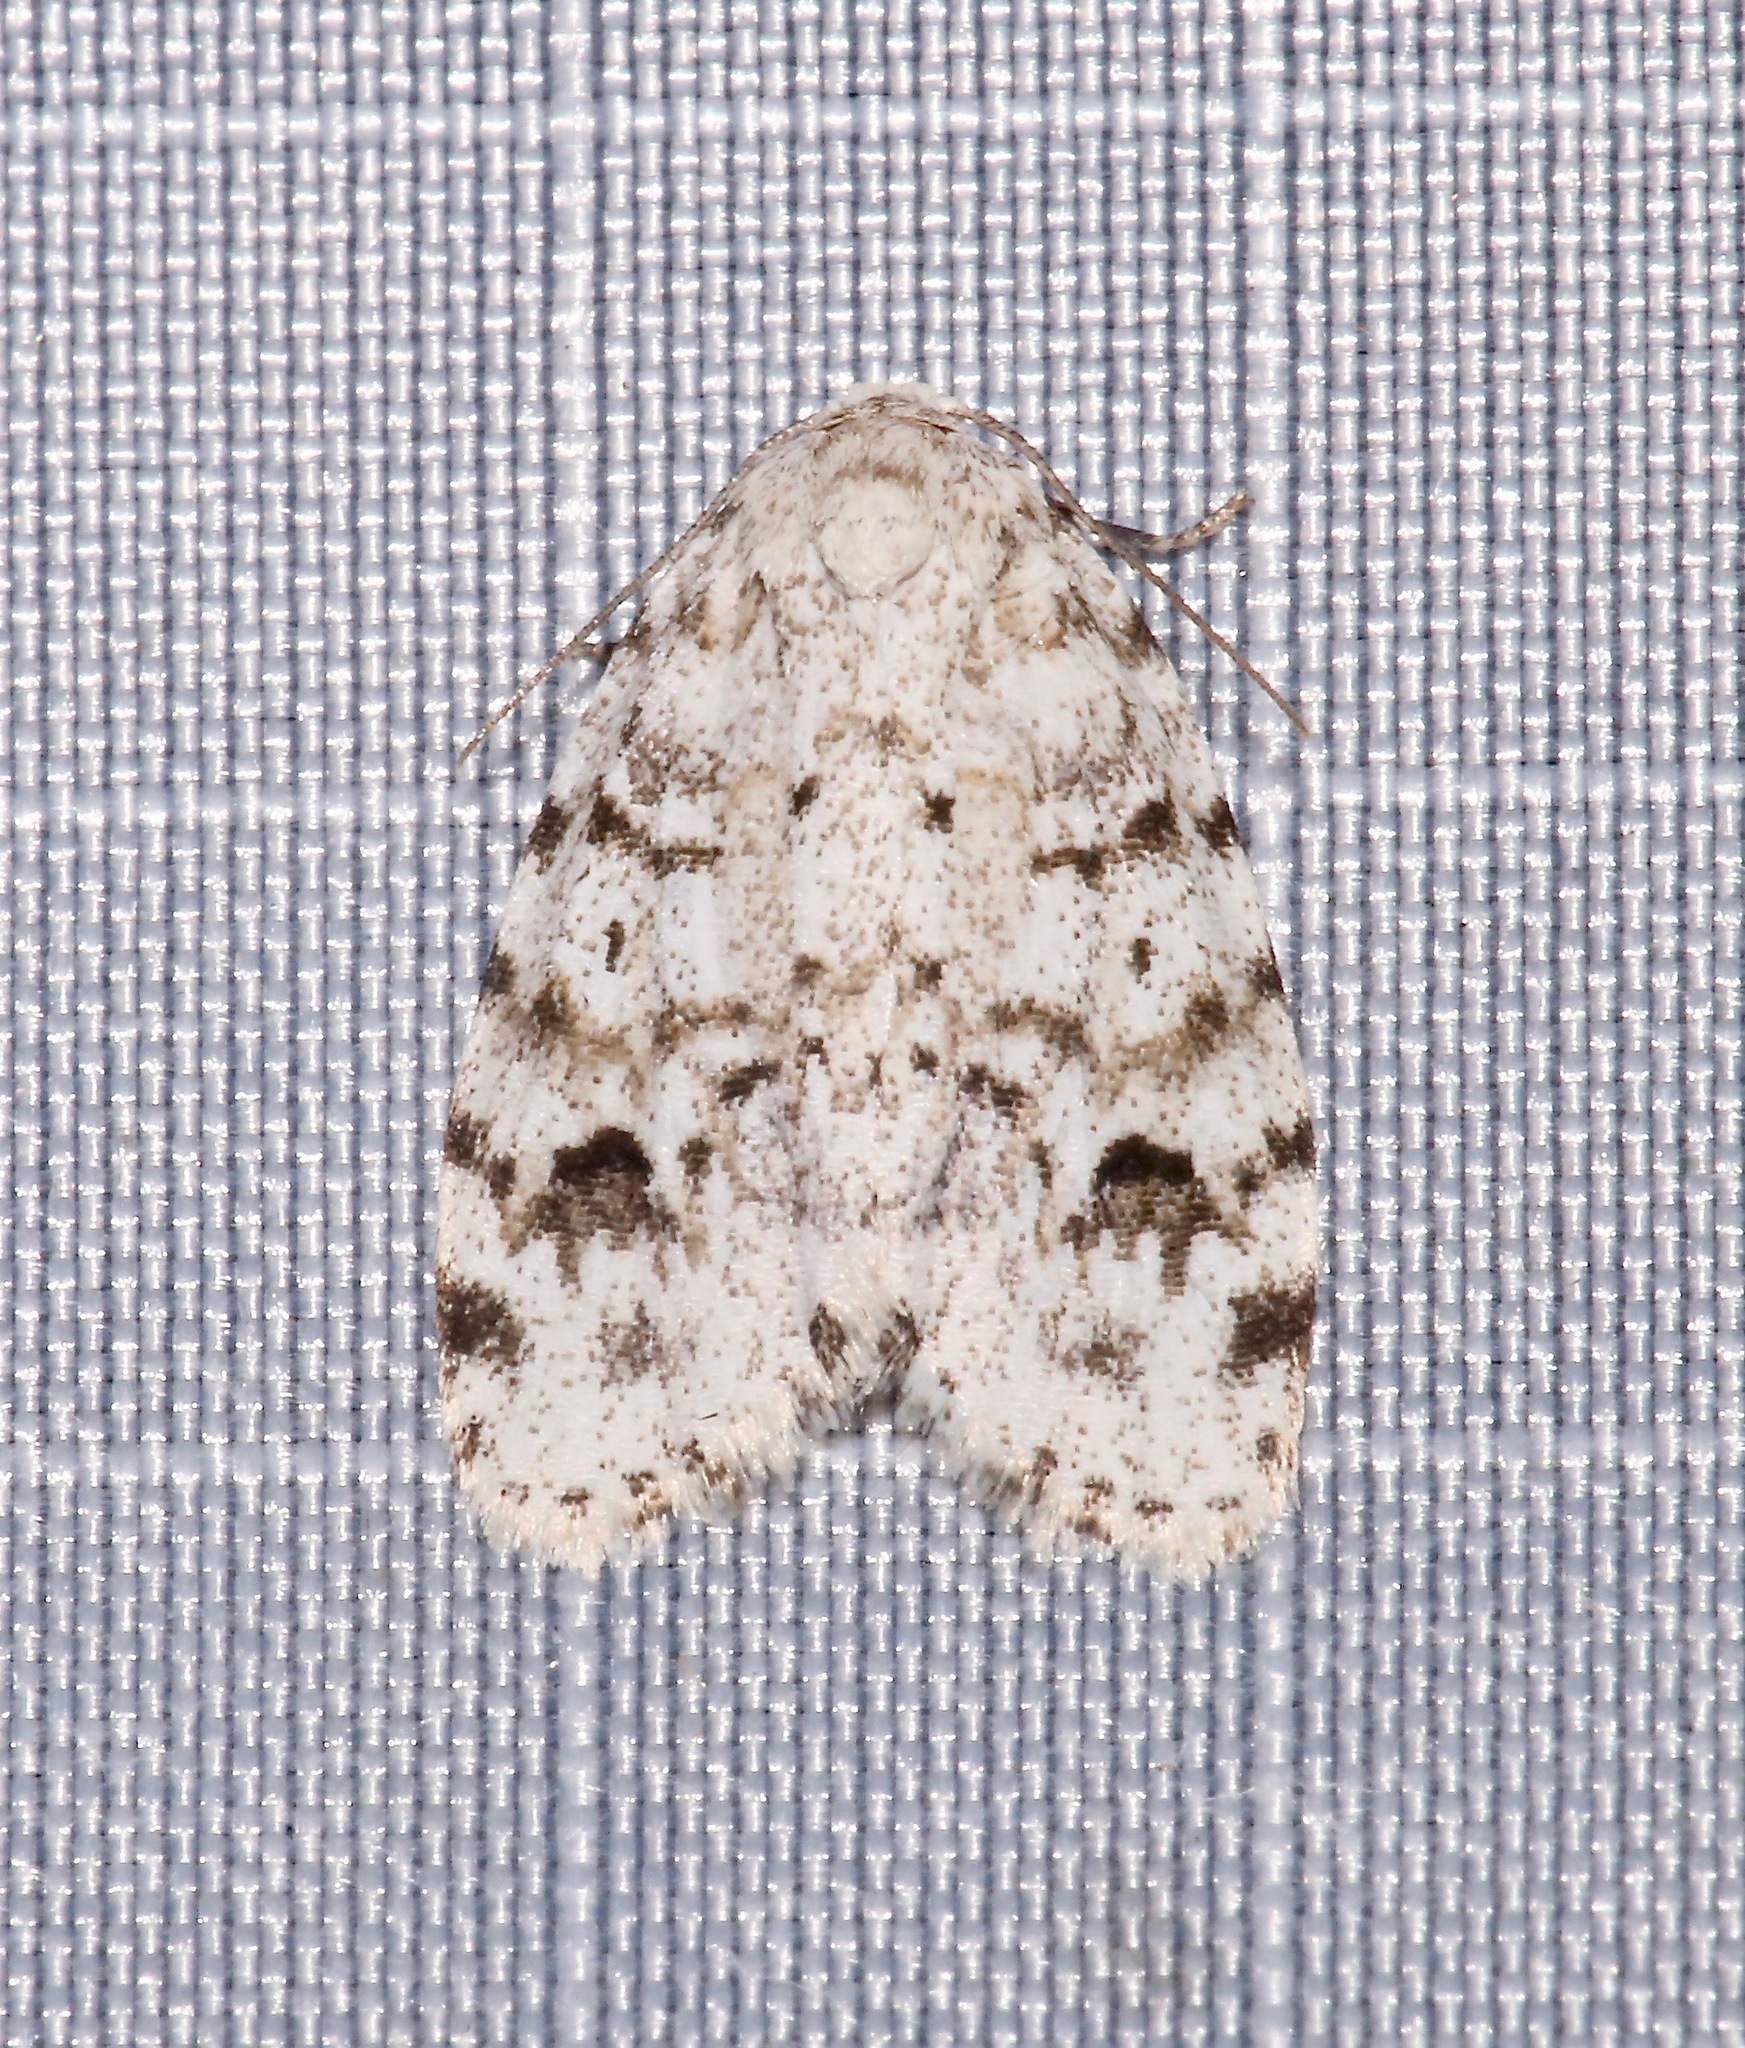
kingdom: Animalia
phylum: Arthropoda
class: Insecta
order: Lepidoptera
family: Erebidae
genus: Clemensia
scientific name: Clemensia albata
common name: Little white lichen moth
